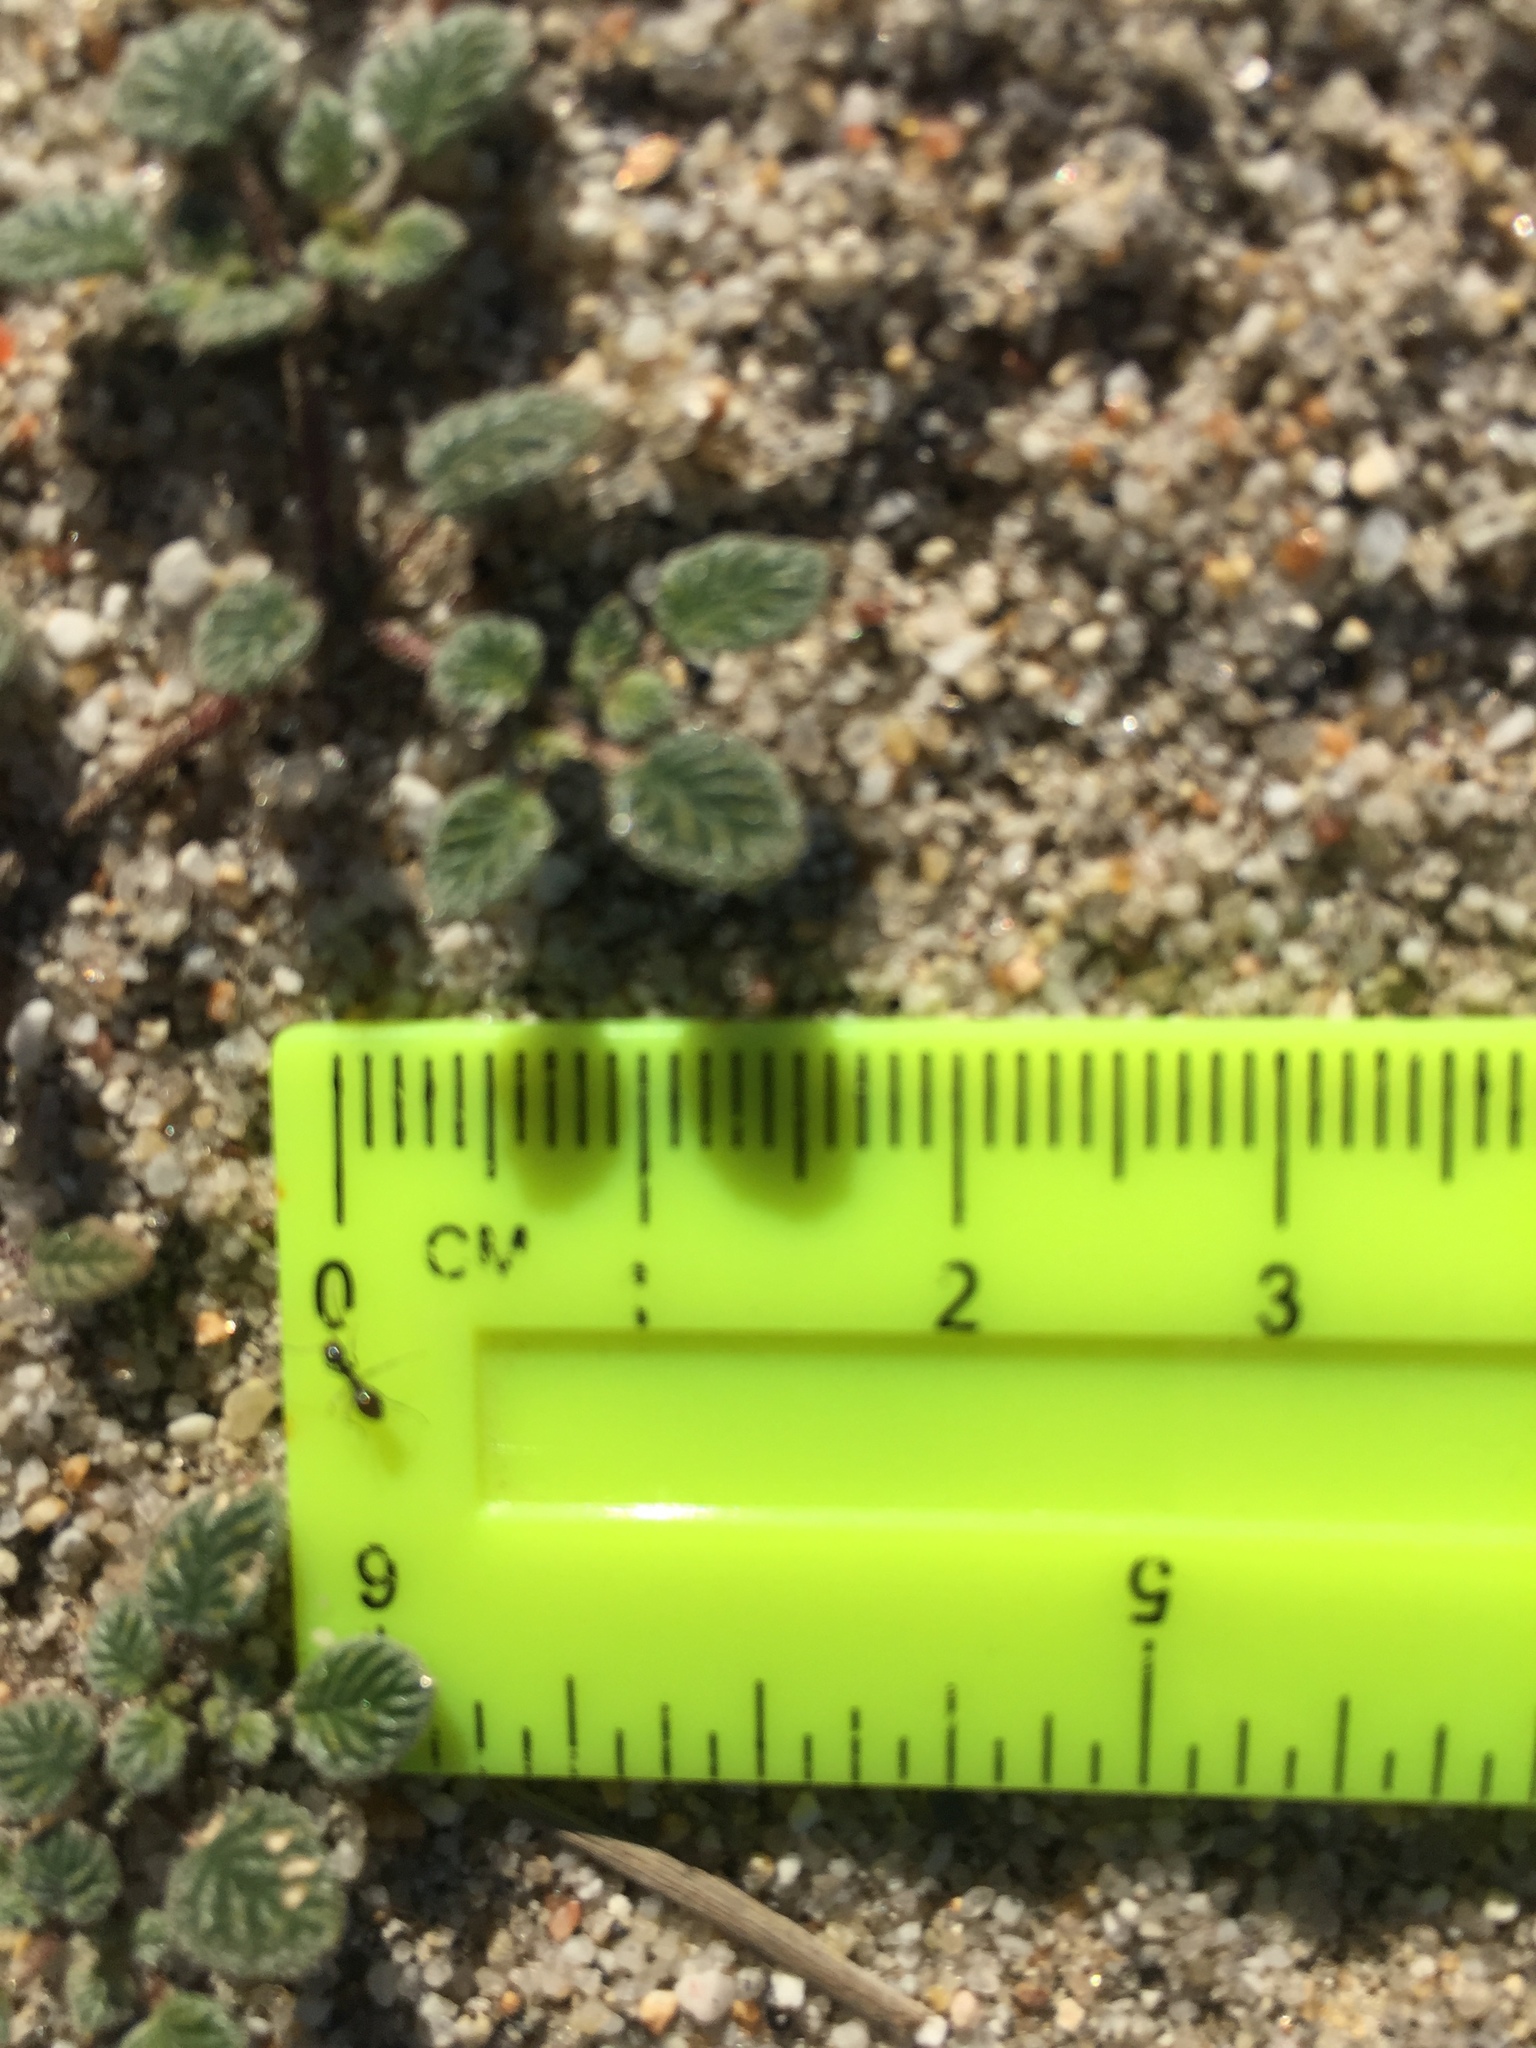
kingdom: Plantae
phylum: Tracheophyta
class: Magnoliopsida
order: Boraginales
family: Ehretiaceae
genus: Tiquilia
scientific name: Tiquilia plicata
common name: Fan-leaf tiquilia
